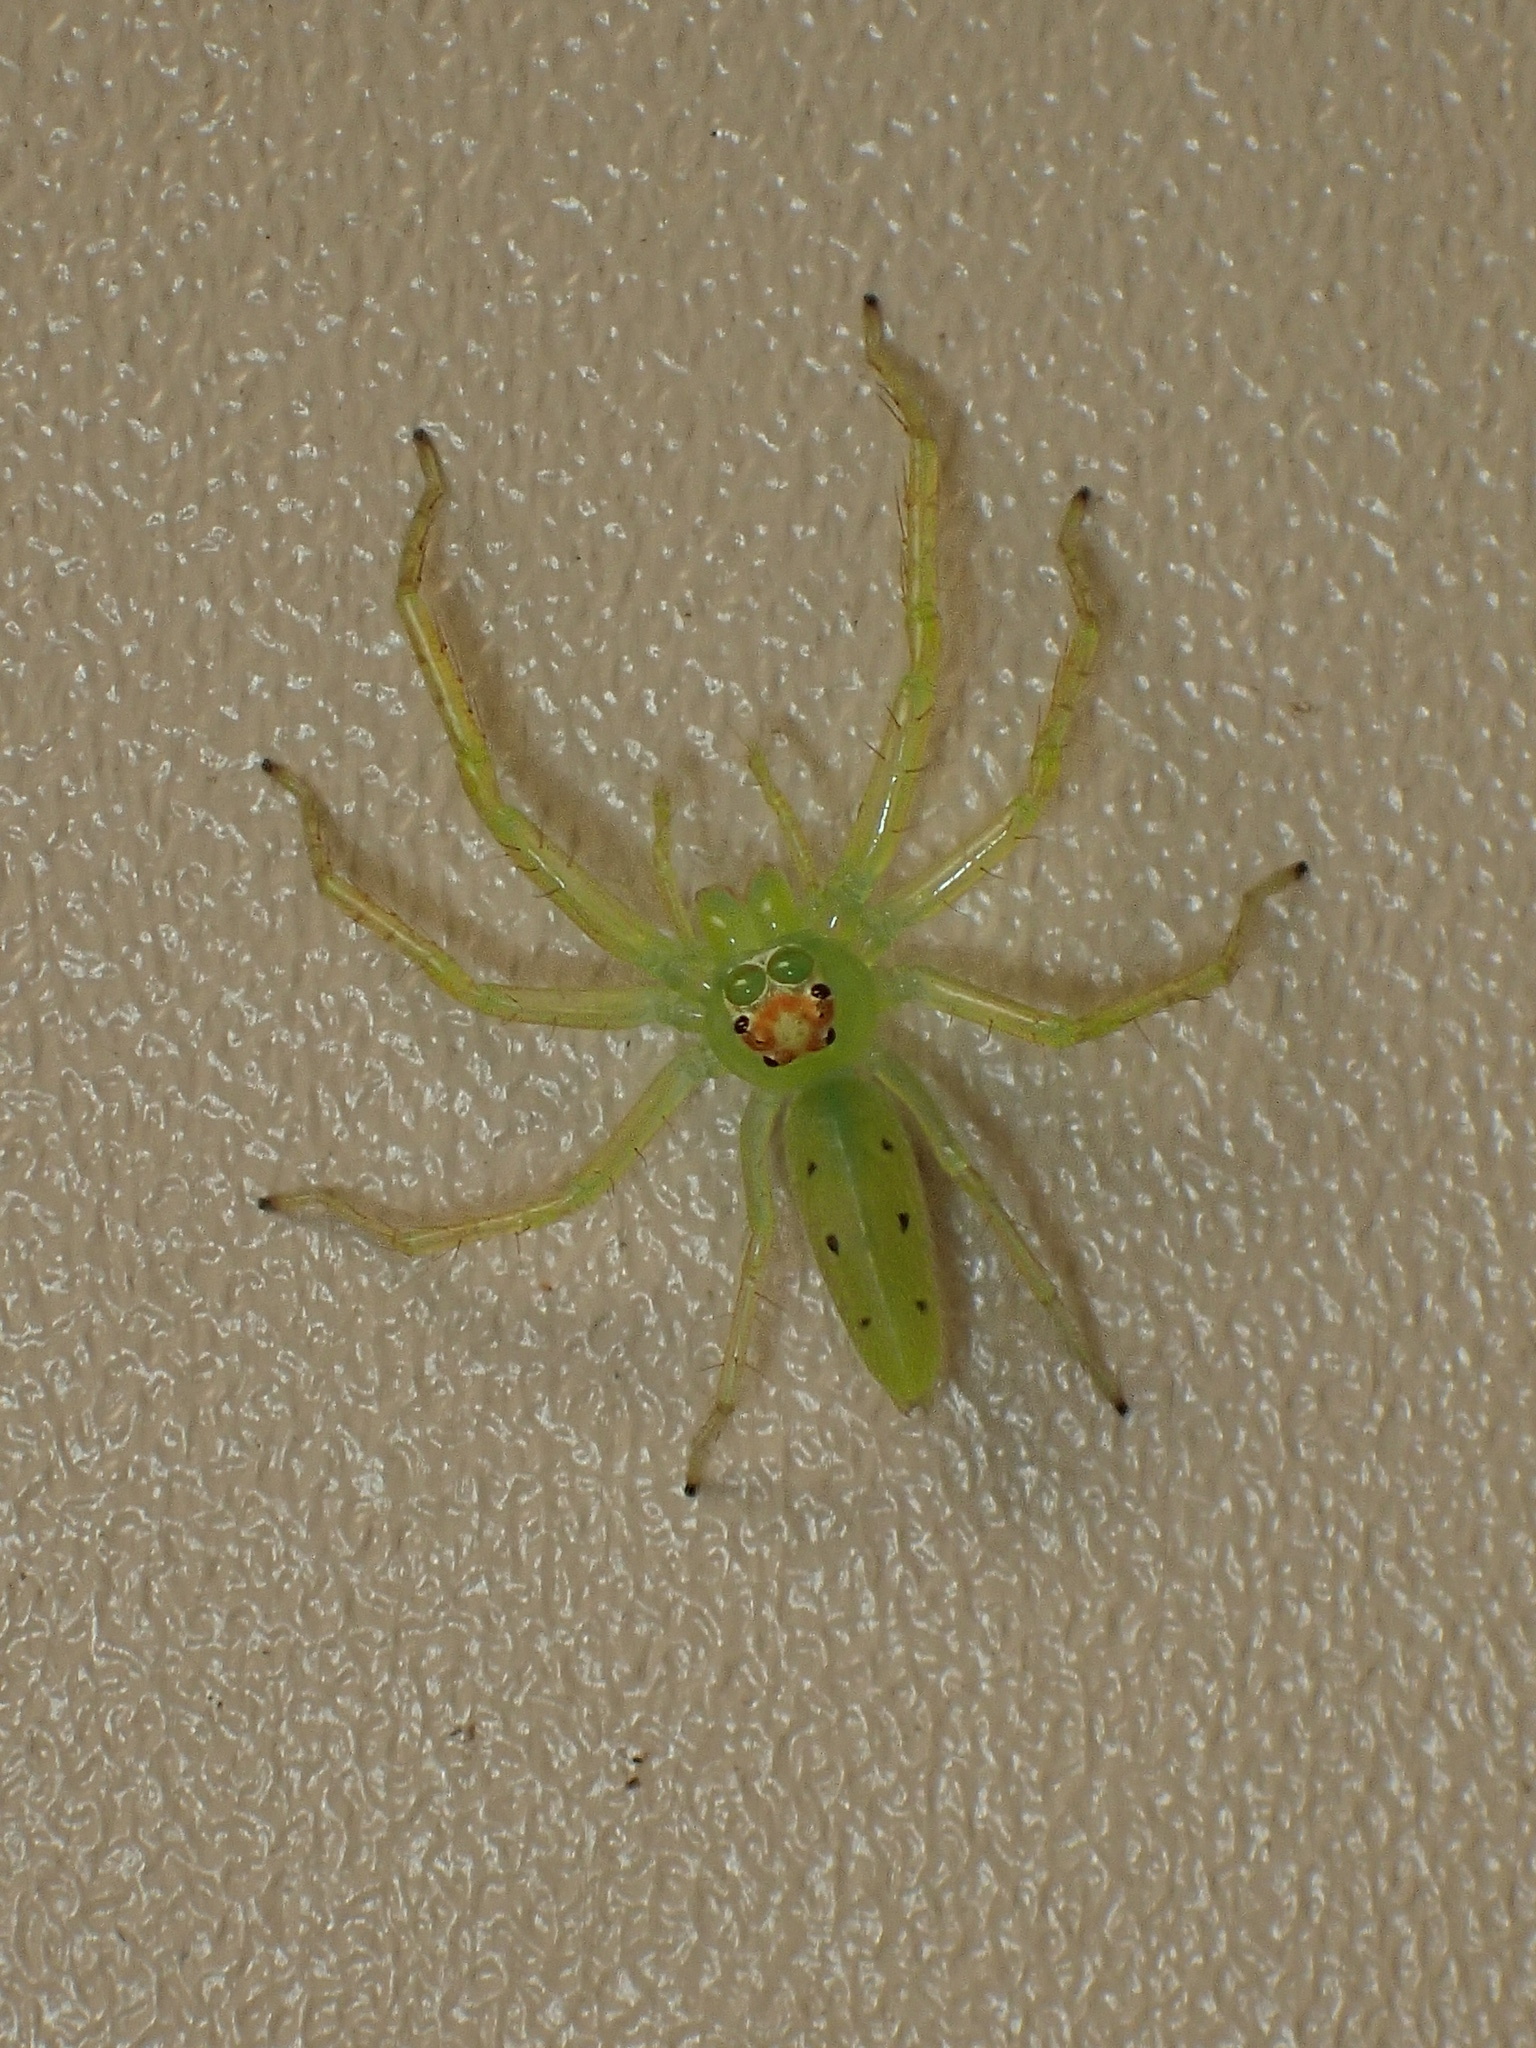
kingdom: Animalia
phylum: Arthropoda
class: Arachnida
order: Araneae
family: Salticidae
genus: Lyssomanes
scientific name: Lyssomanes viridis
